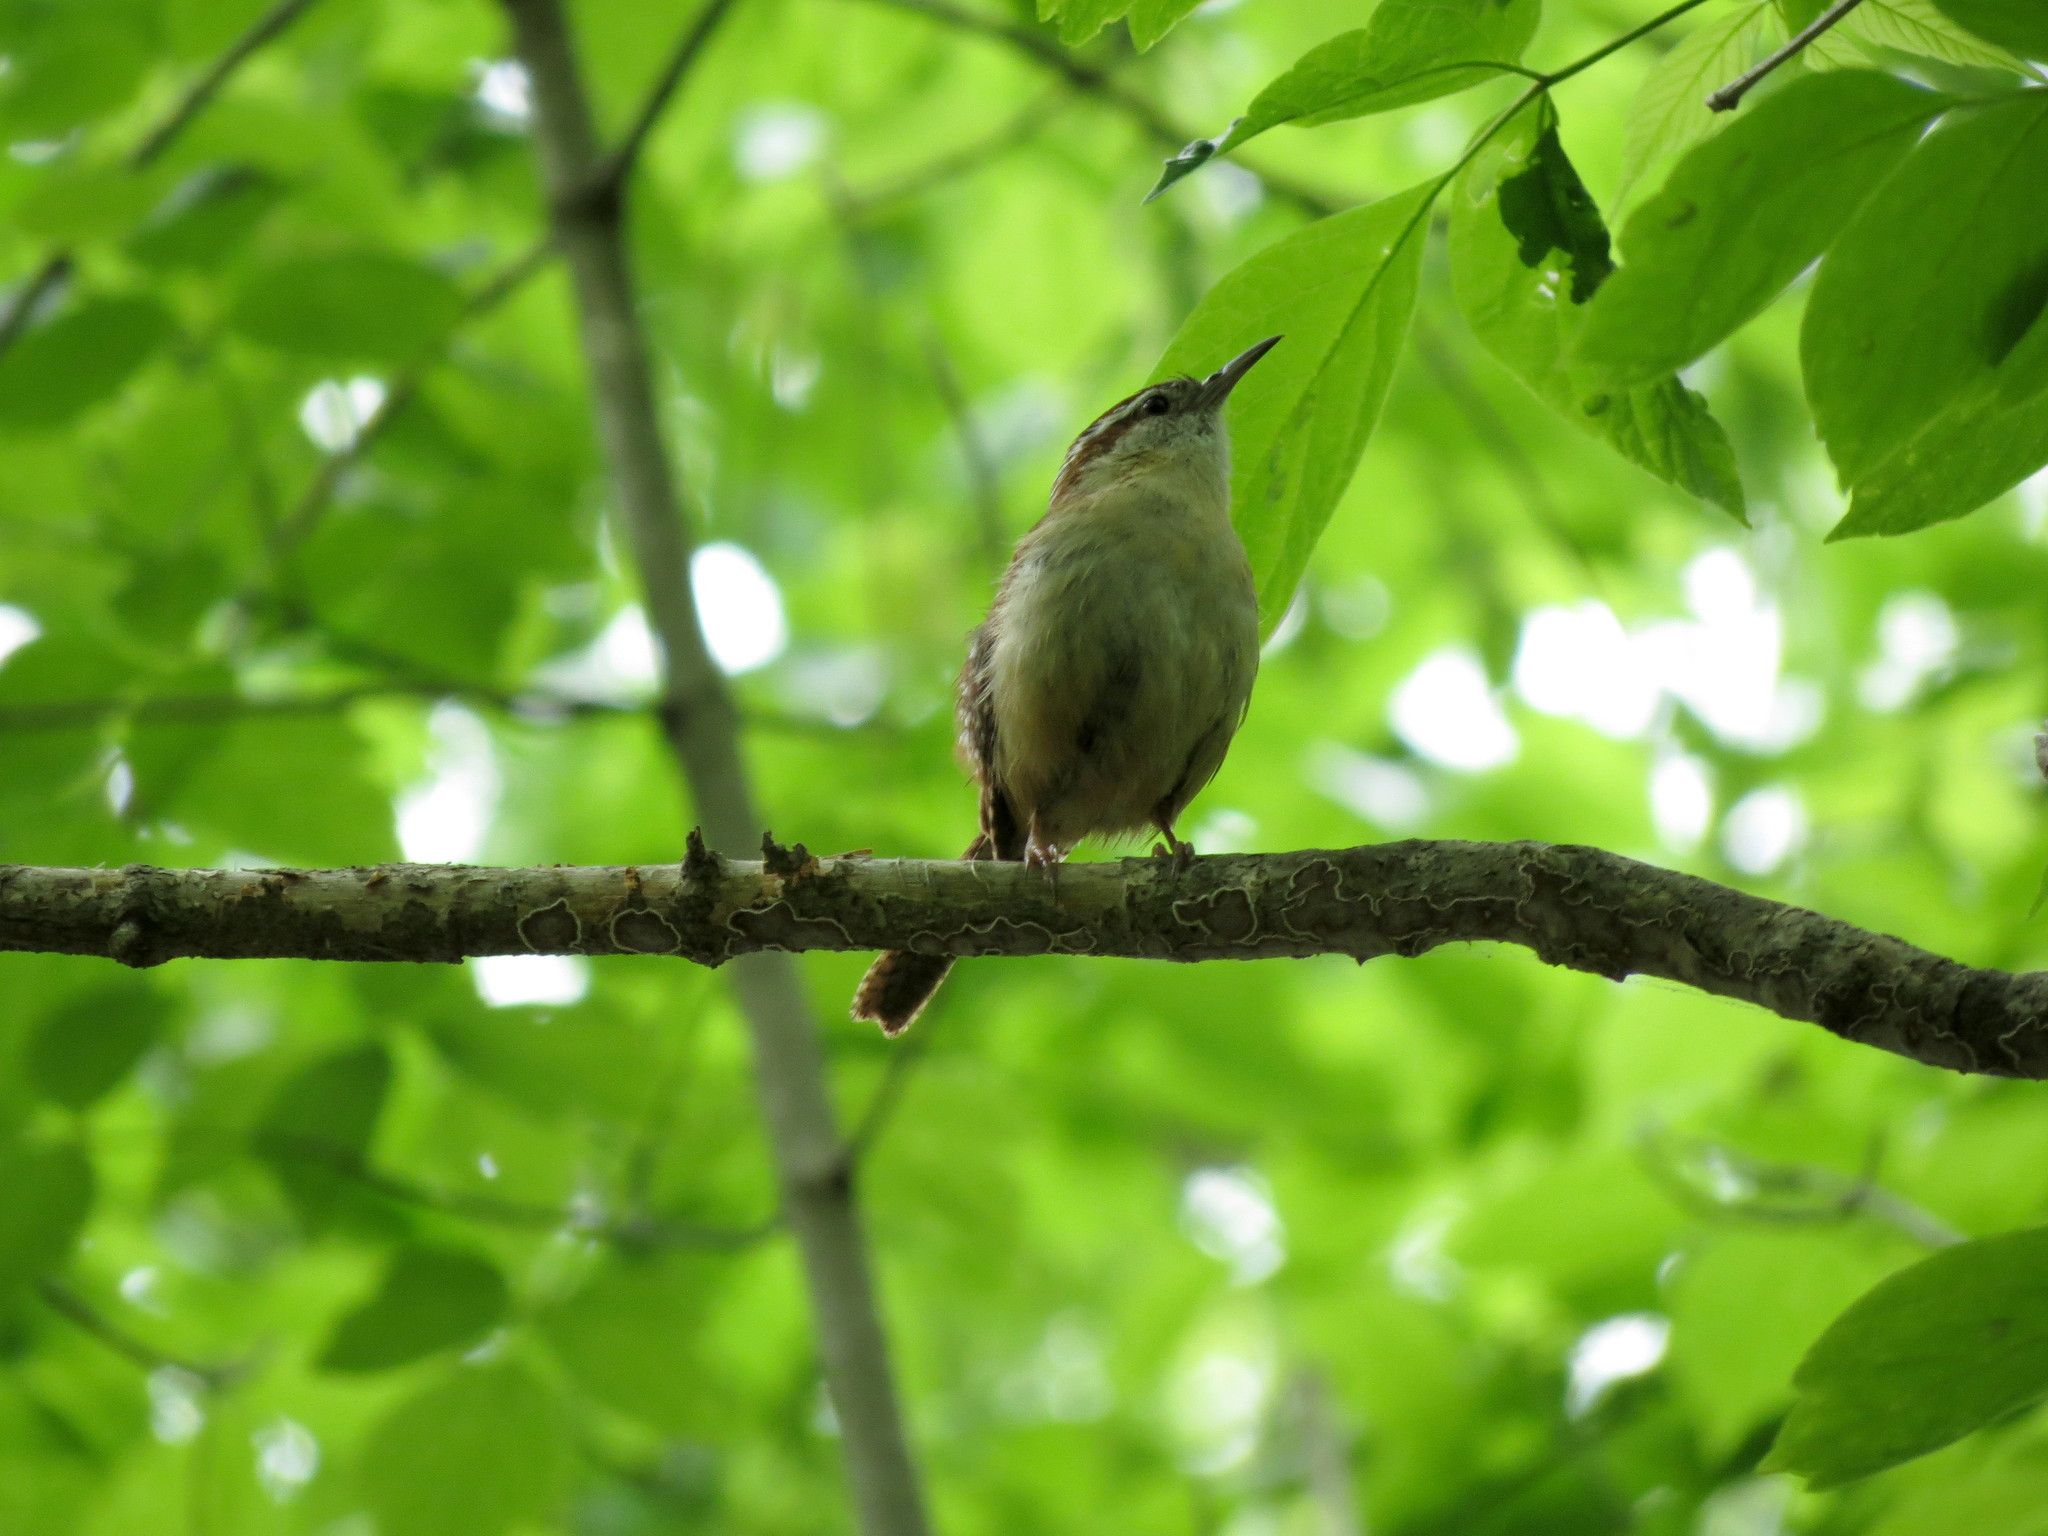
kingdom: Animalia
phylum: Chordata
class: Aves
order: Passeriformes
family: Troglodytidae
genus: Thryothorus
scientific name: Thryothorus ludovicianus
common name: Carolina wren
